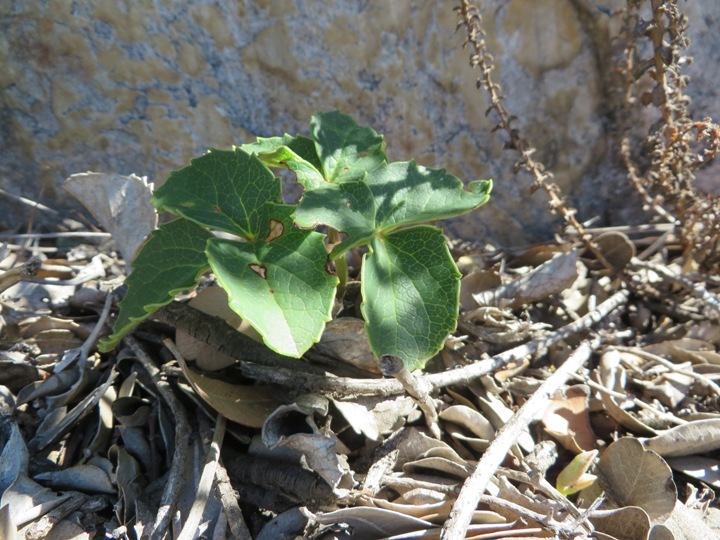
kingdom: Plantae
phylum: Tracheophyta
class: Magnoliopsida
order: Ranunculales
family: Ranunculaceae
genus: Knowltonia
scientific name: Knowltonia vesicatoria
